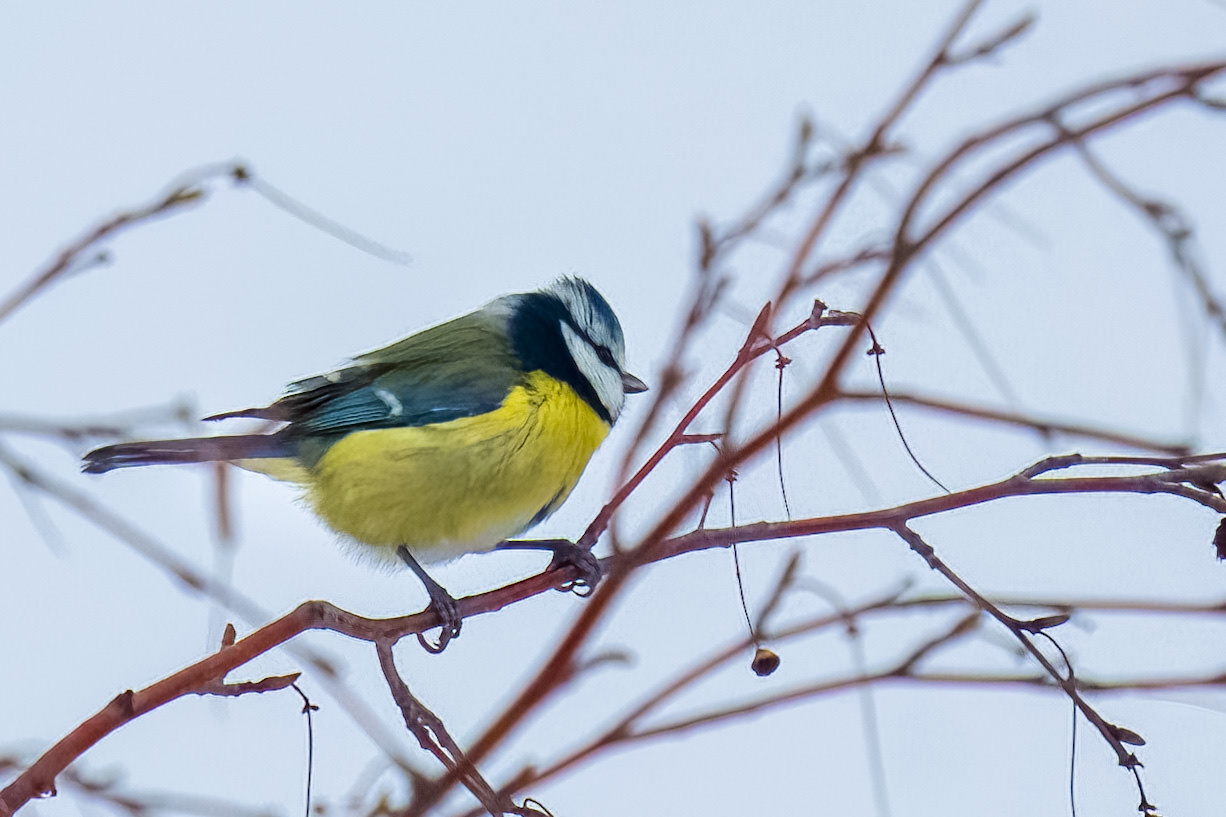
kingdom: Animalia
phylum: Chordata
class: Aves
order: Passeriformes
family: Paridae
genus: Cyanistes
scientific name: Cyanistes caeruleus
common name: Eurasian blue tit
